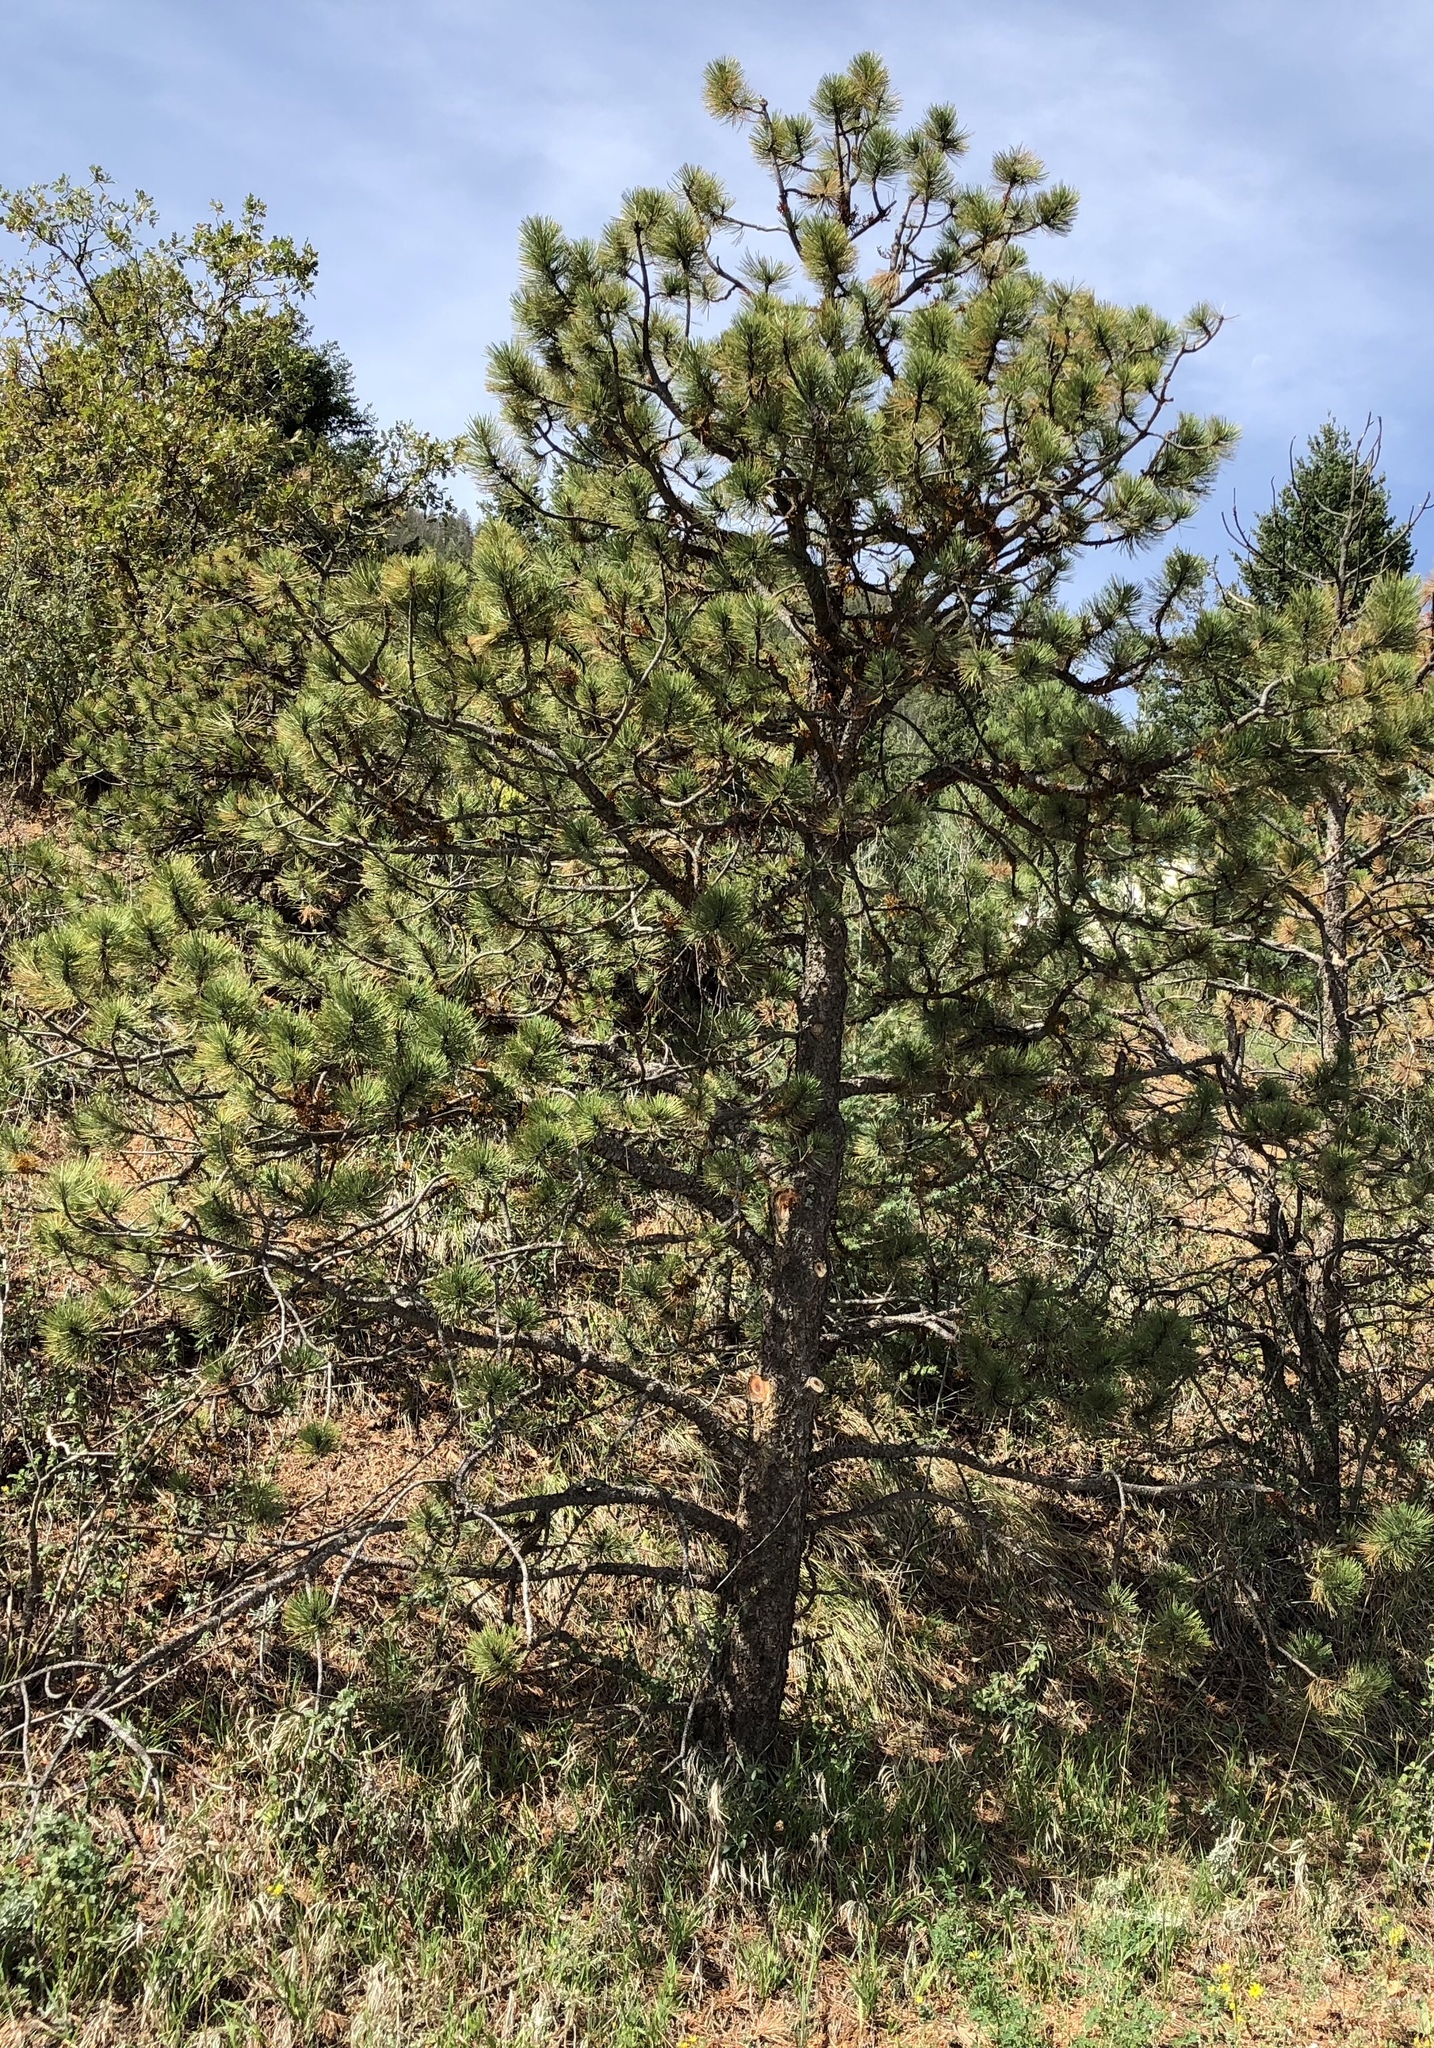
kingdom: Plantae
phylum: Tracheophyta
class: Pinopsida
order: Pinales
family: Pinaceae
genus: Pinus
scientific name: Pinus ponderosa
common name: Western yellow-pine
